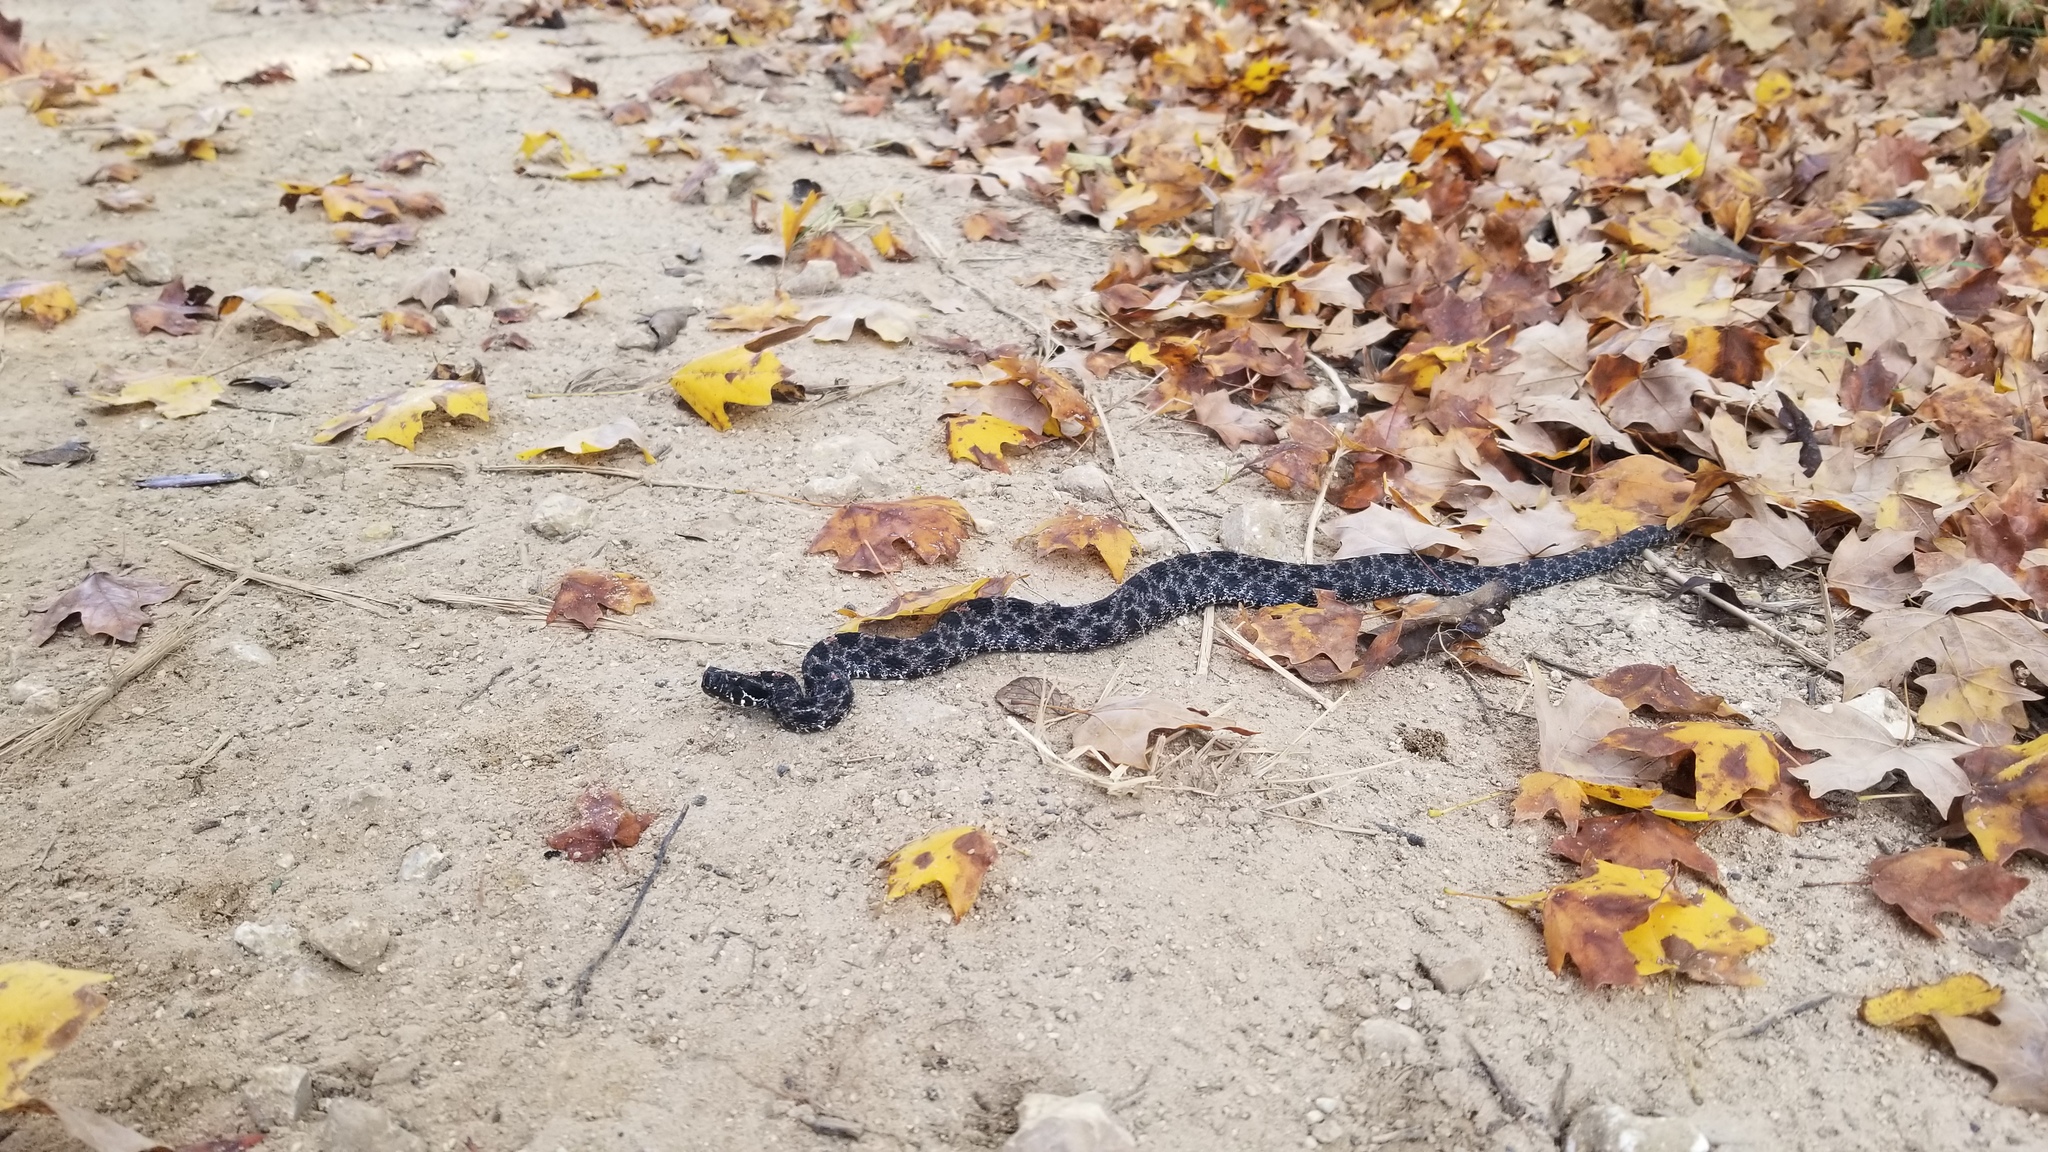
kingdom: Animalia
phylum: Chordata
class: Squamata
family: Viperidae
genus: Sistrurus
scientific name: Sistrurus miliarius
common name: Pygmy rattlesnake
